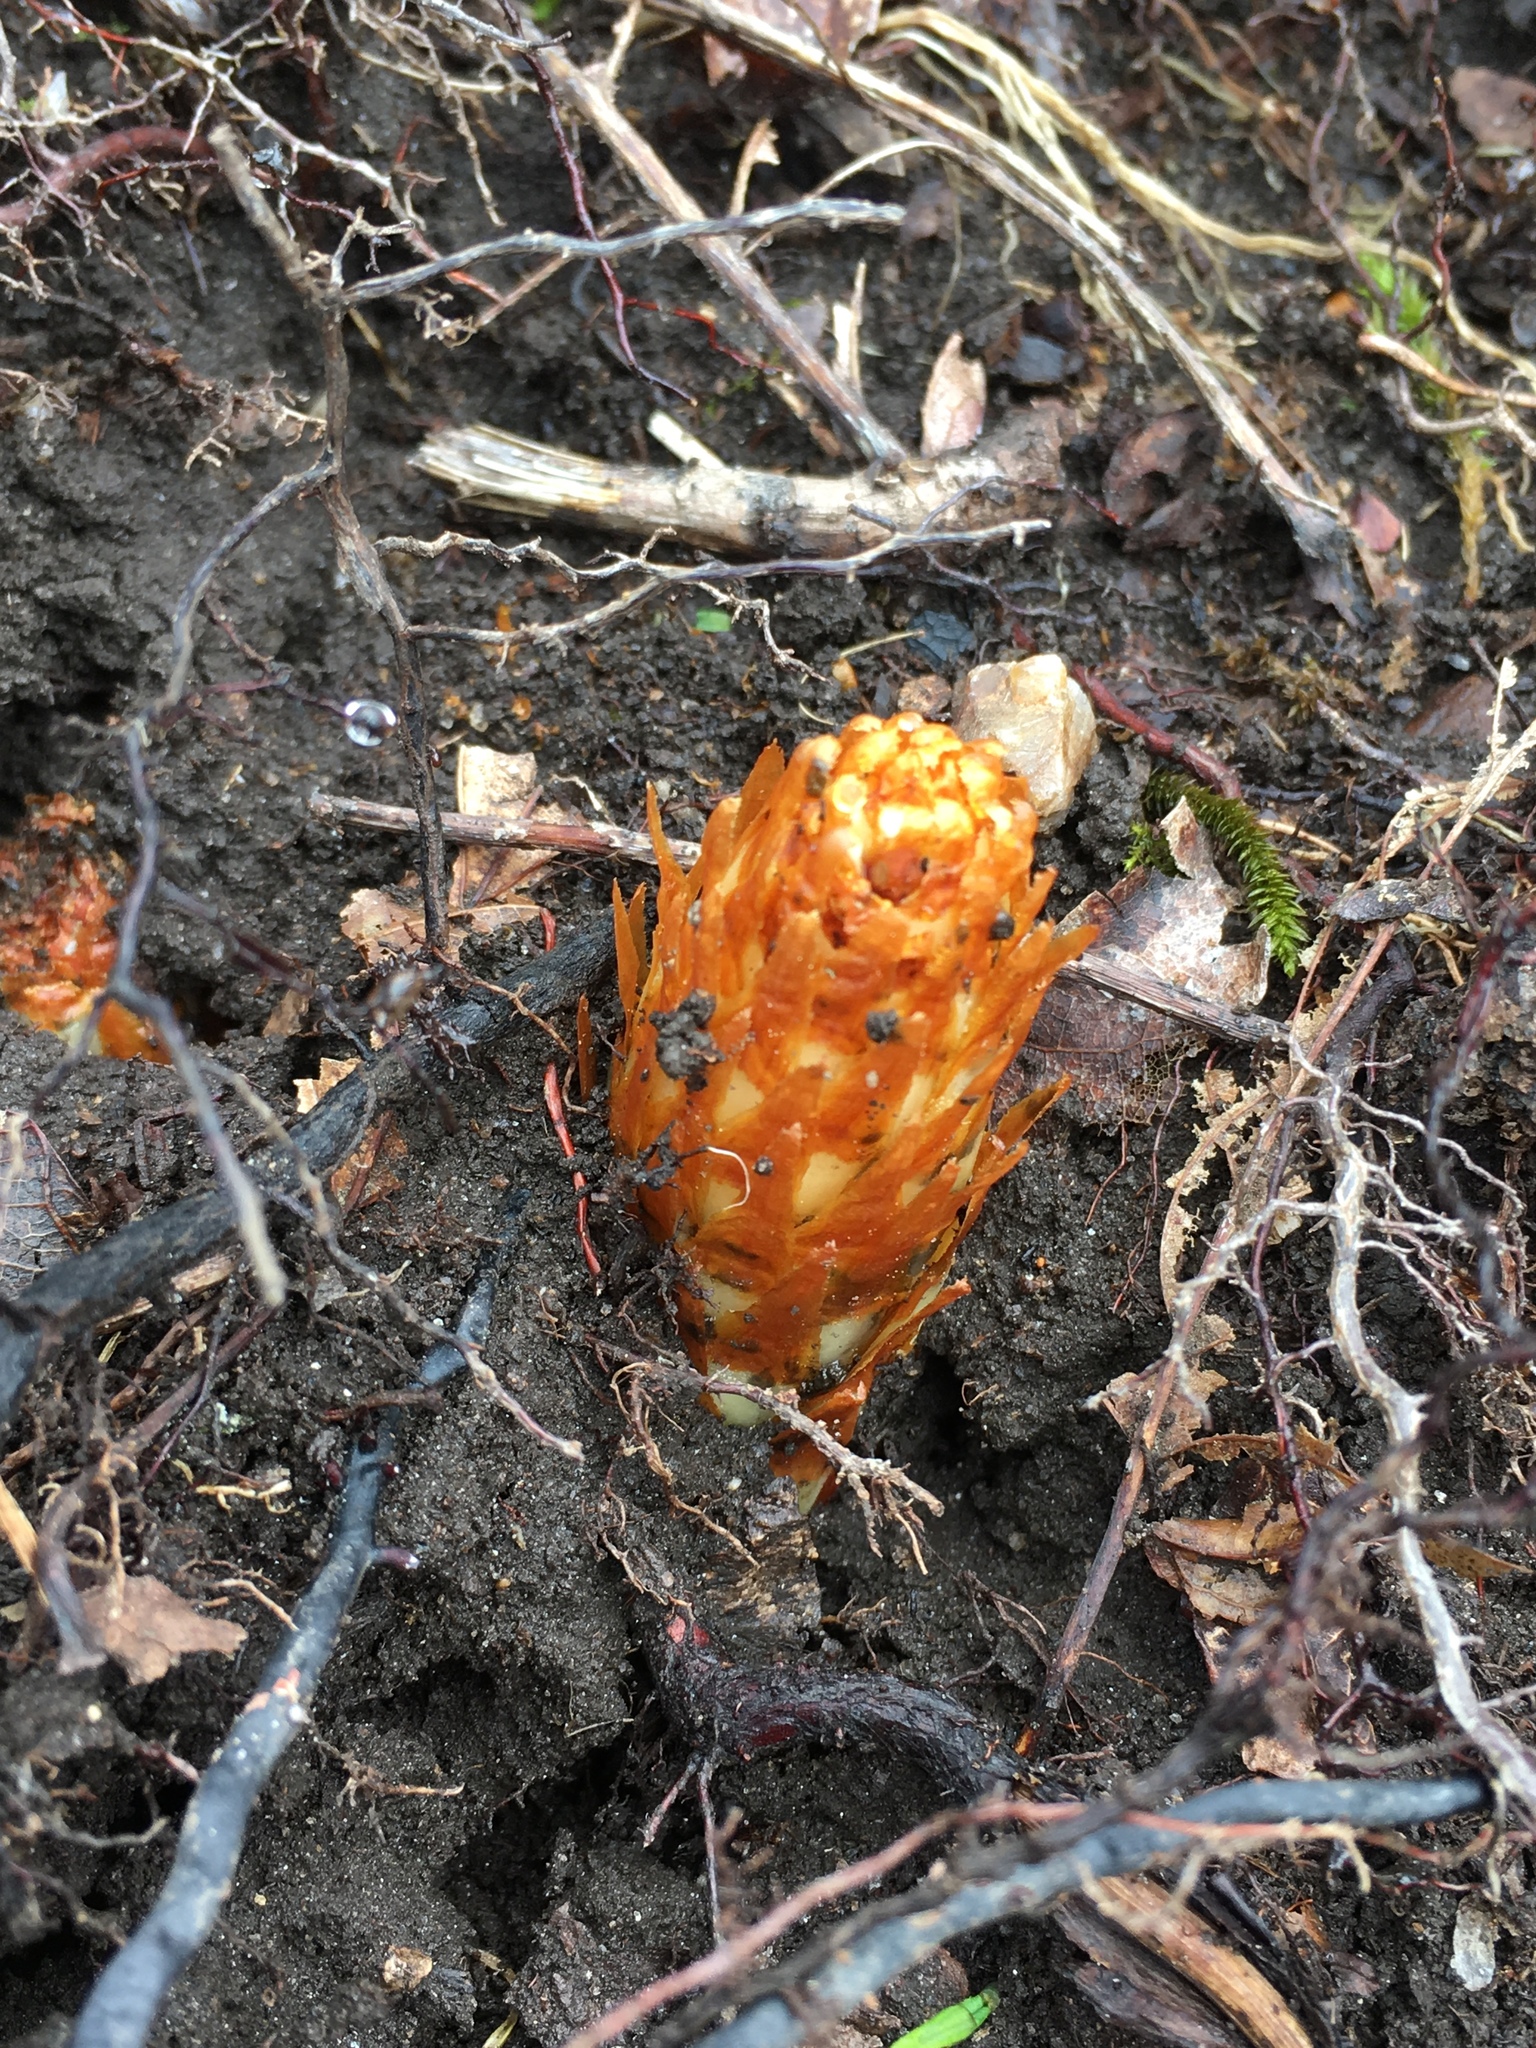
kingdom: Plantae
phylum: Tracheophyta
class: Magnoliopsida
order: Lamiales
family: Orobanchaceae
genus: Conopholis
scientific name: Conopholis americana
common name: American cancer-root
